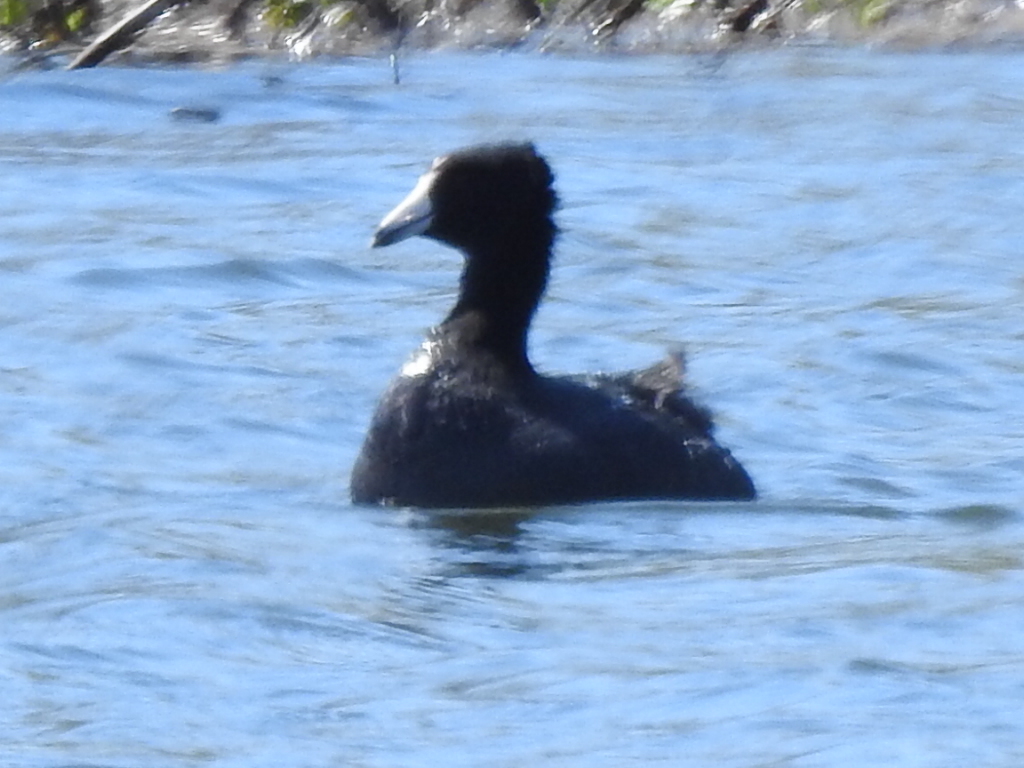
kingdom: Animalia
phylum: Chordata
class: Aves
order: Gruiformes
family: Rallidae
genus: Fulica
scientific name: Fulica americana
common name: American coot
